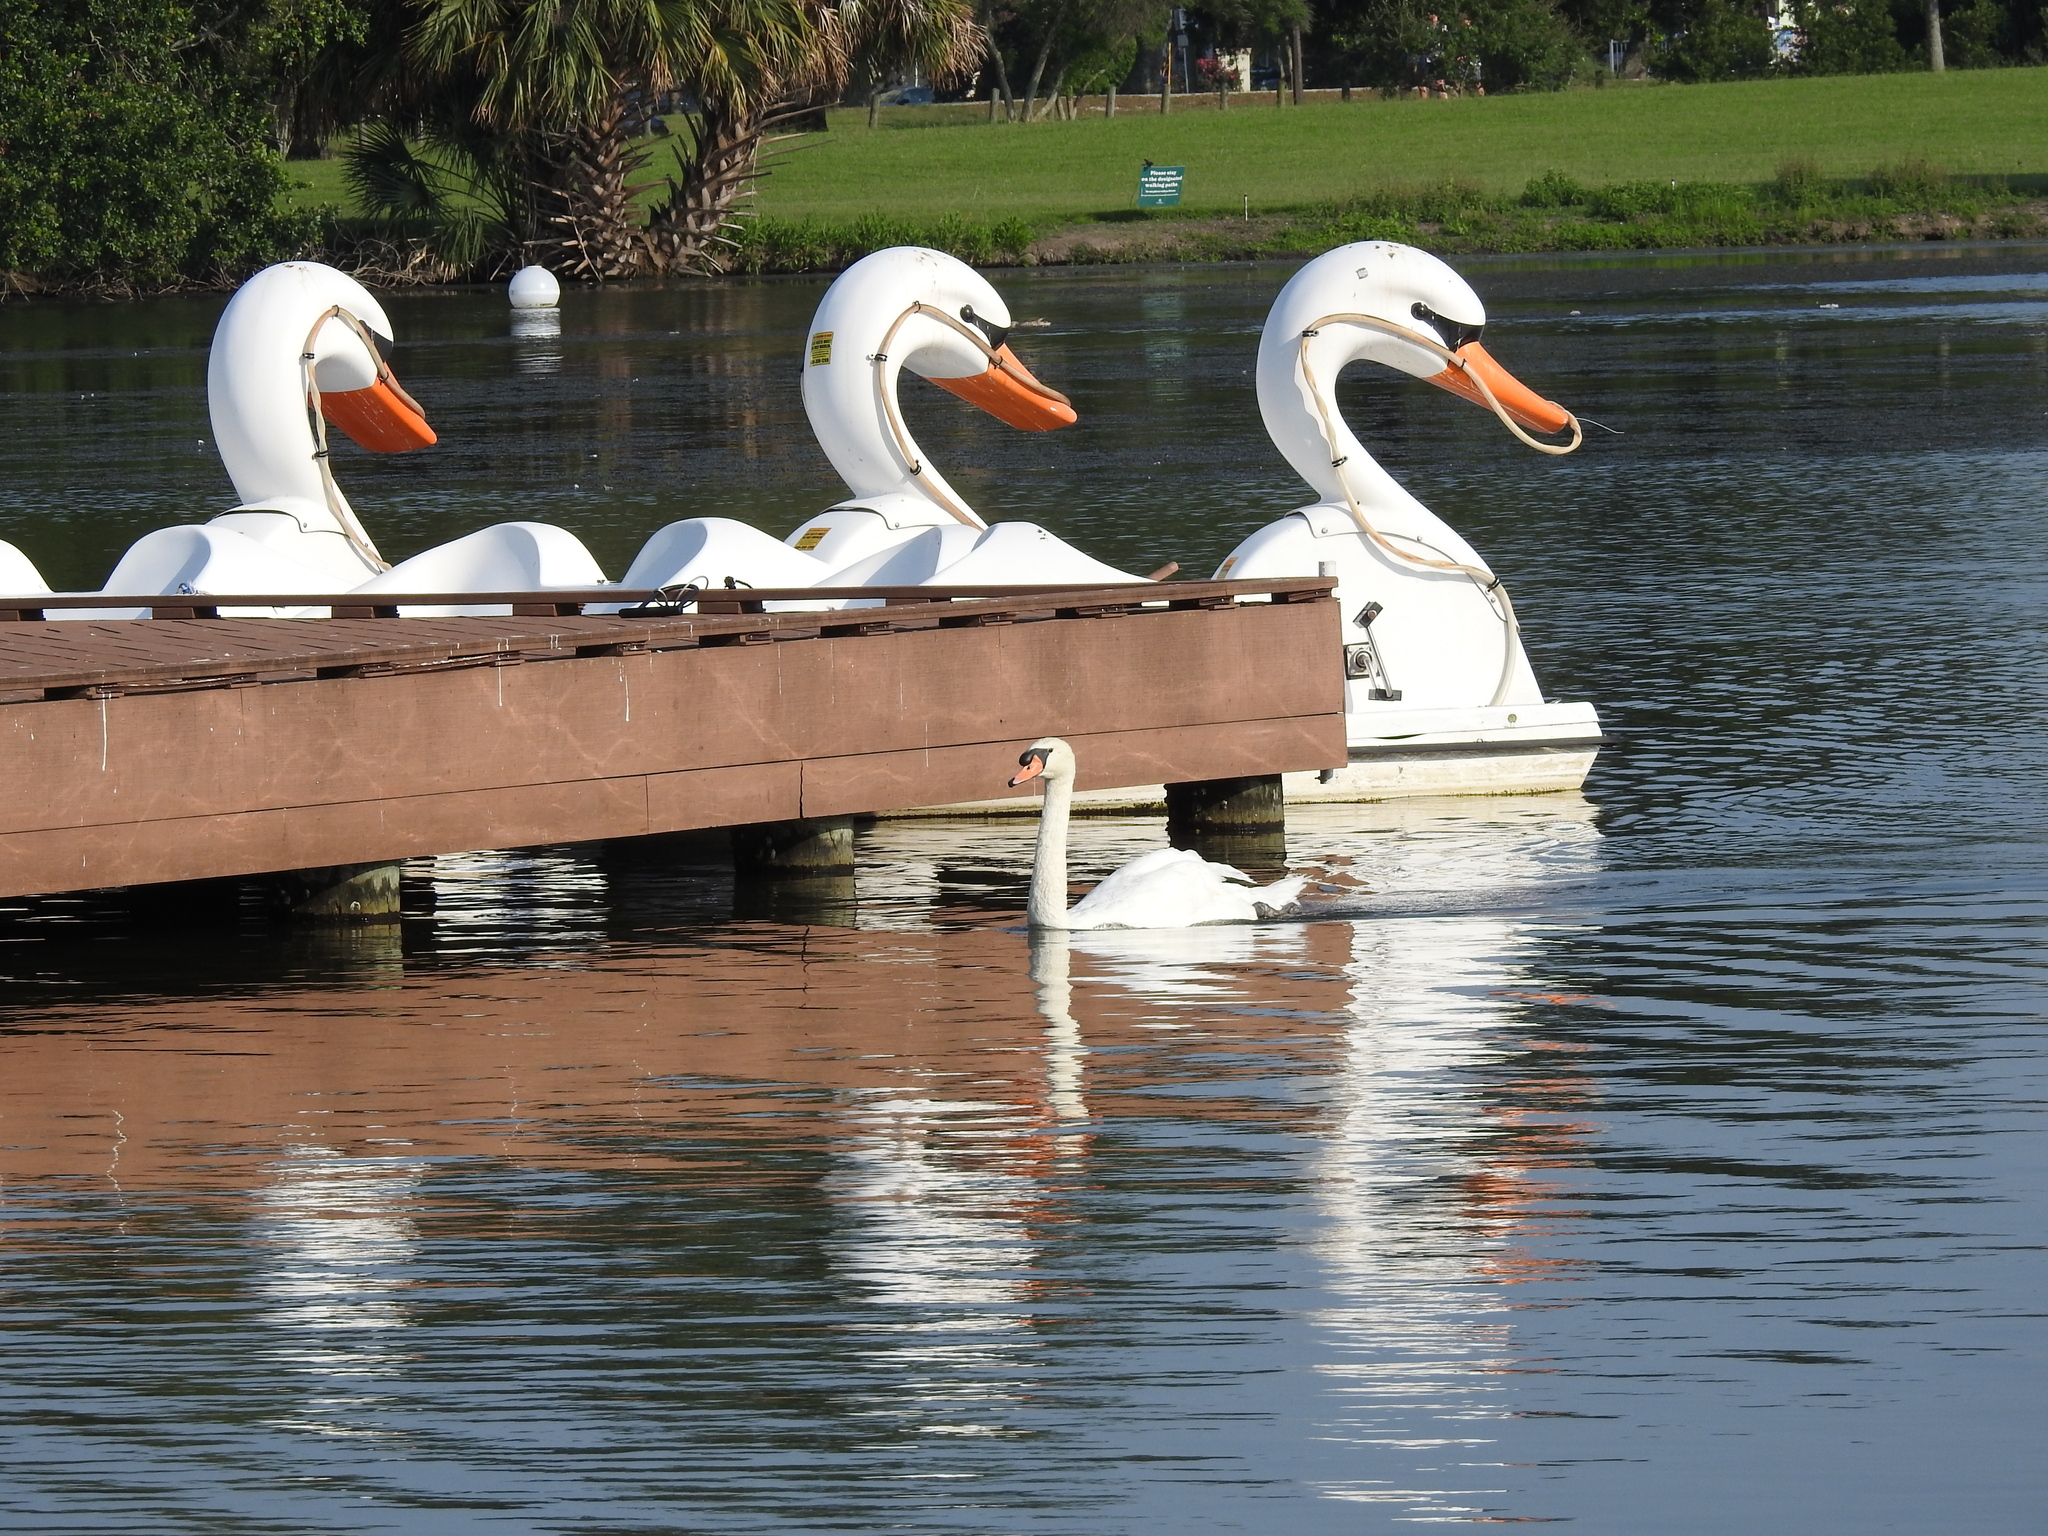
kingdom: Animalia
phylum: Chordata
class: Aves
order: Anseriformes
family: Anatidae
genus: Cygnus
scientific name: Cygnus olor
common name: Mute swan
